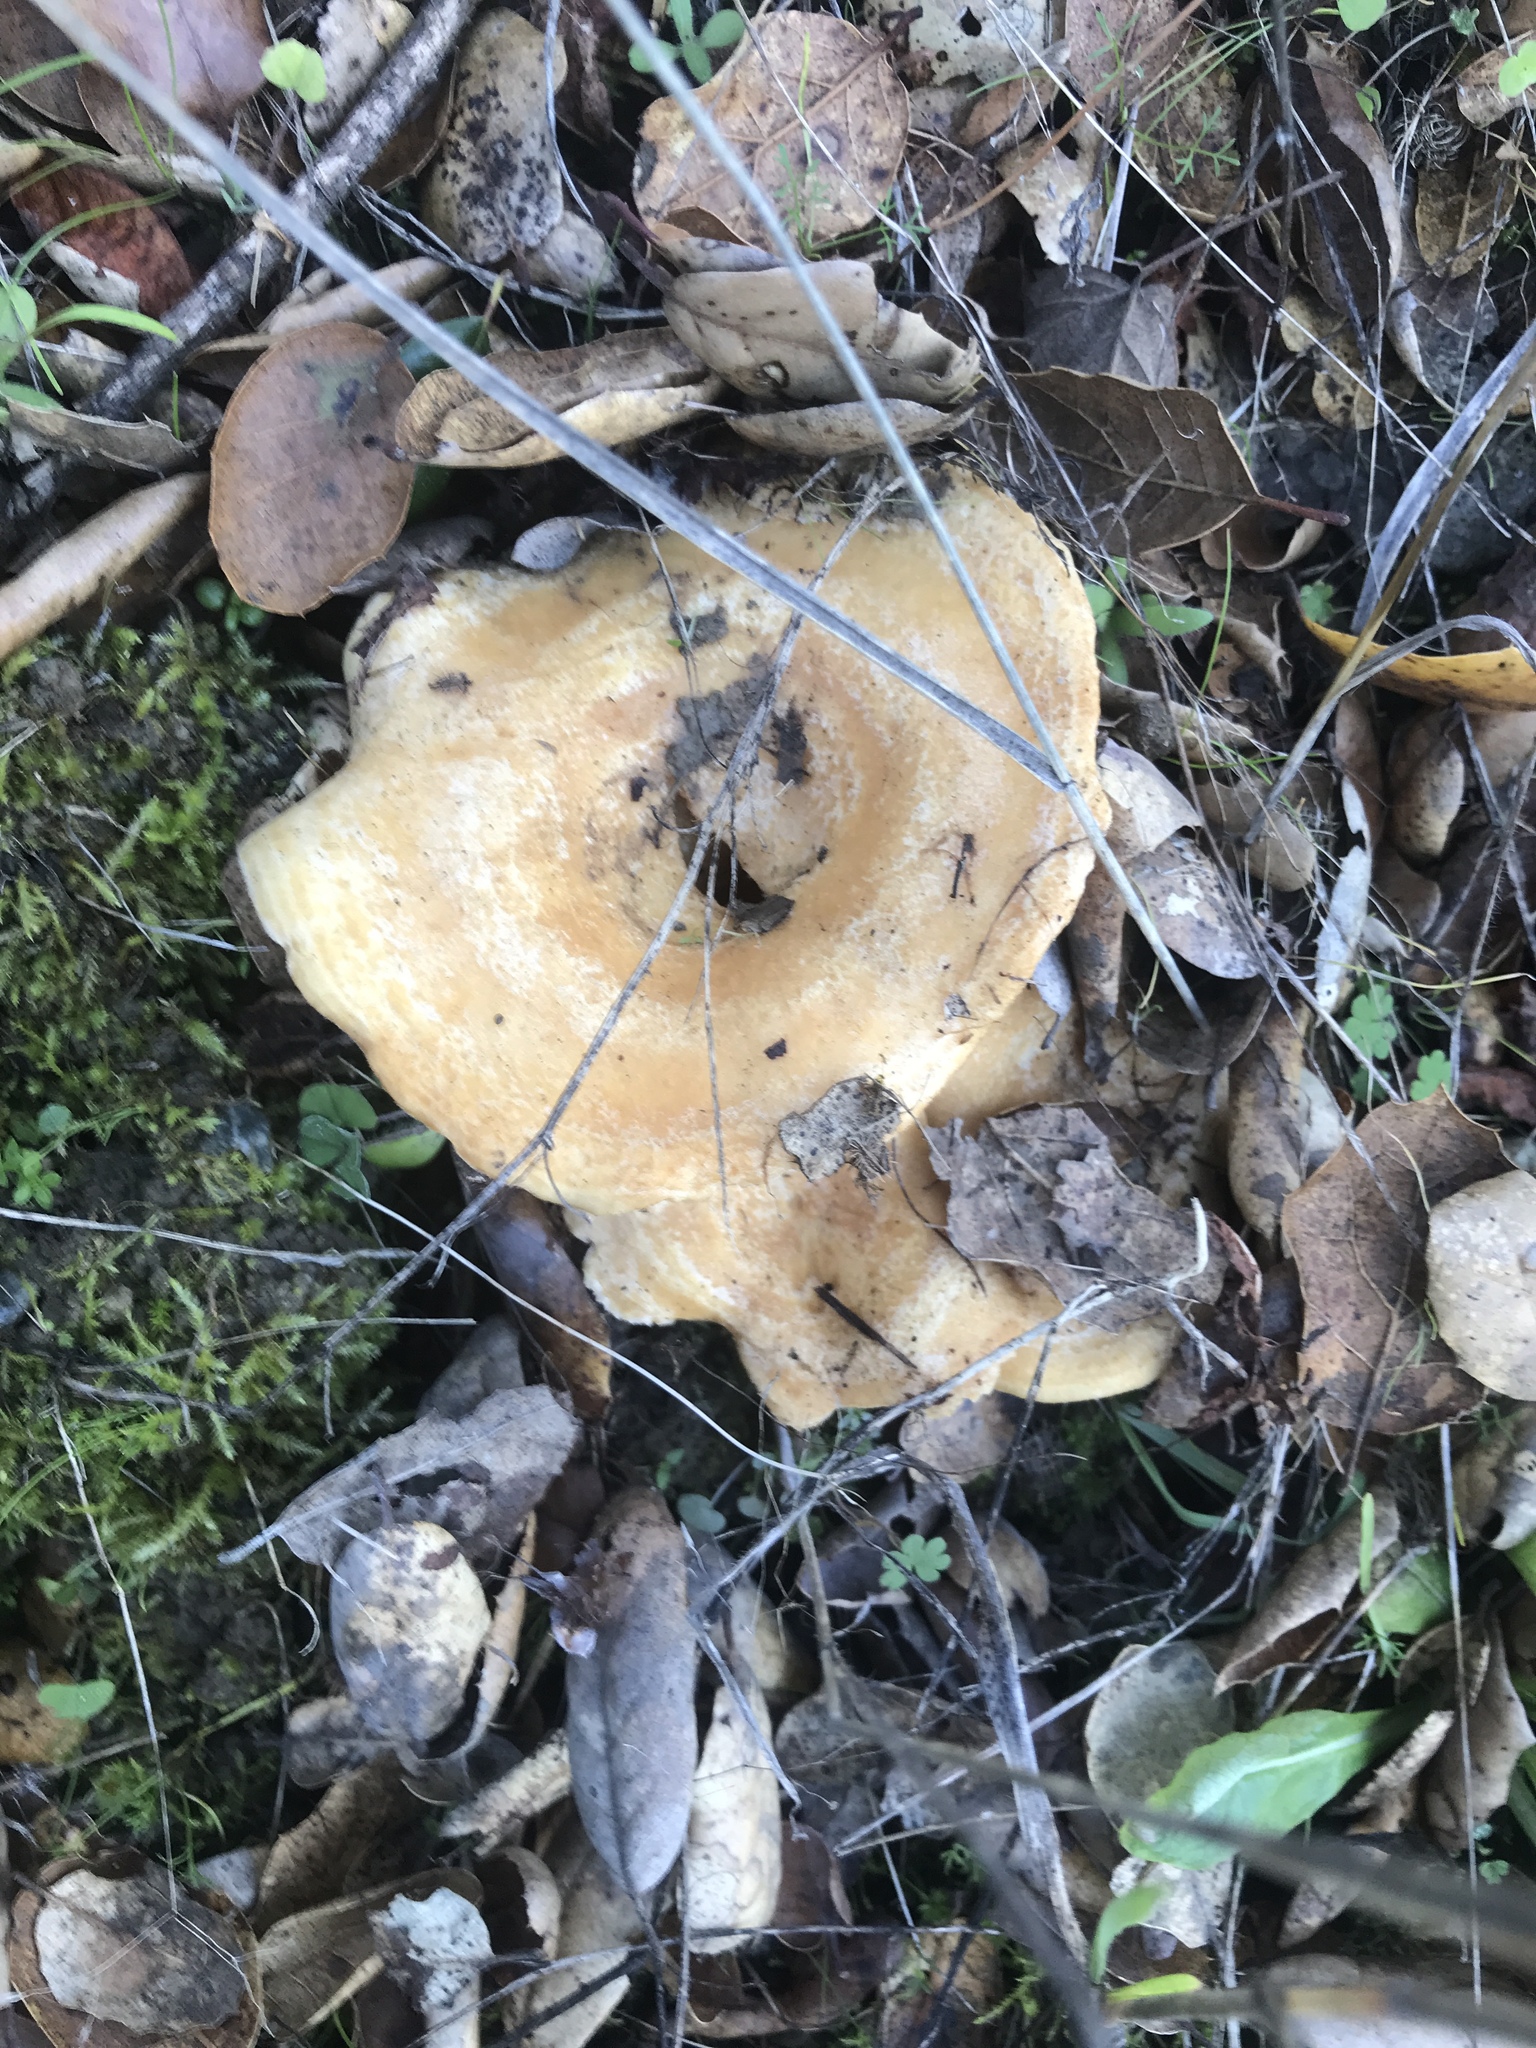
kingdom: Fungi
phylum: Basidiomycota
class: Agaricomycetes
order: Russulales
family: Russulaceae
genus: Lactarius
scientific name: Lactarius alnicola
